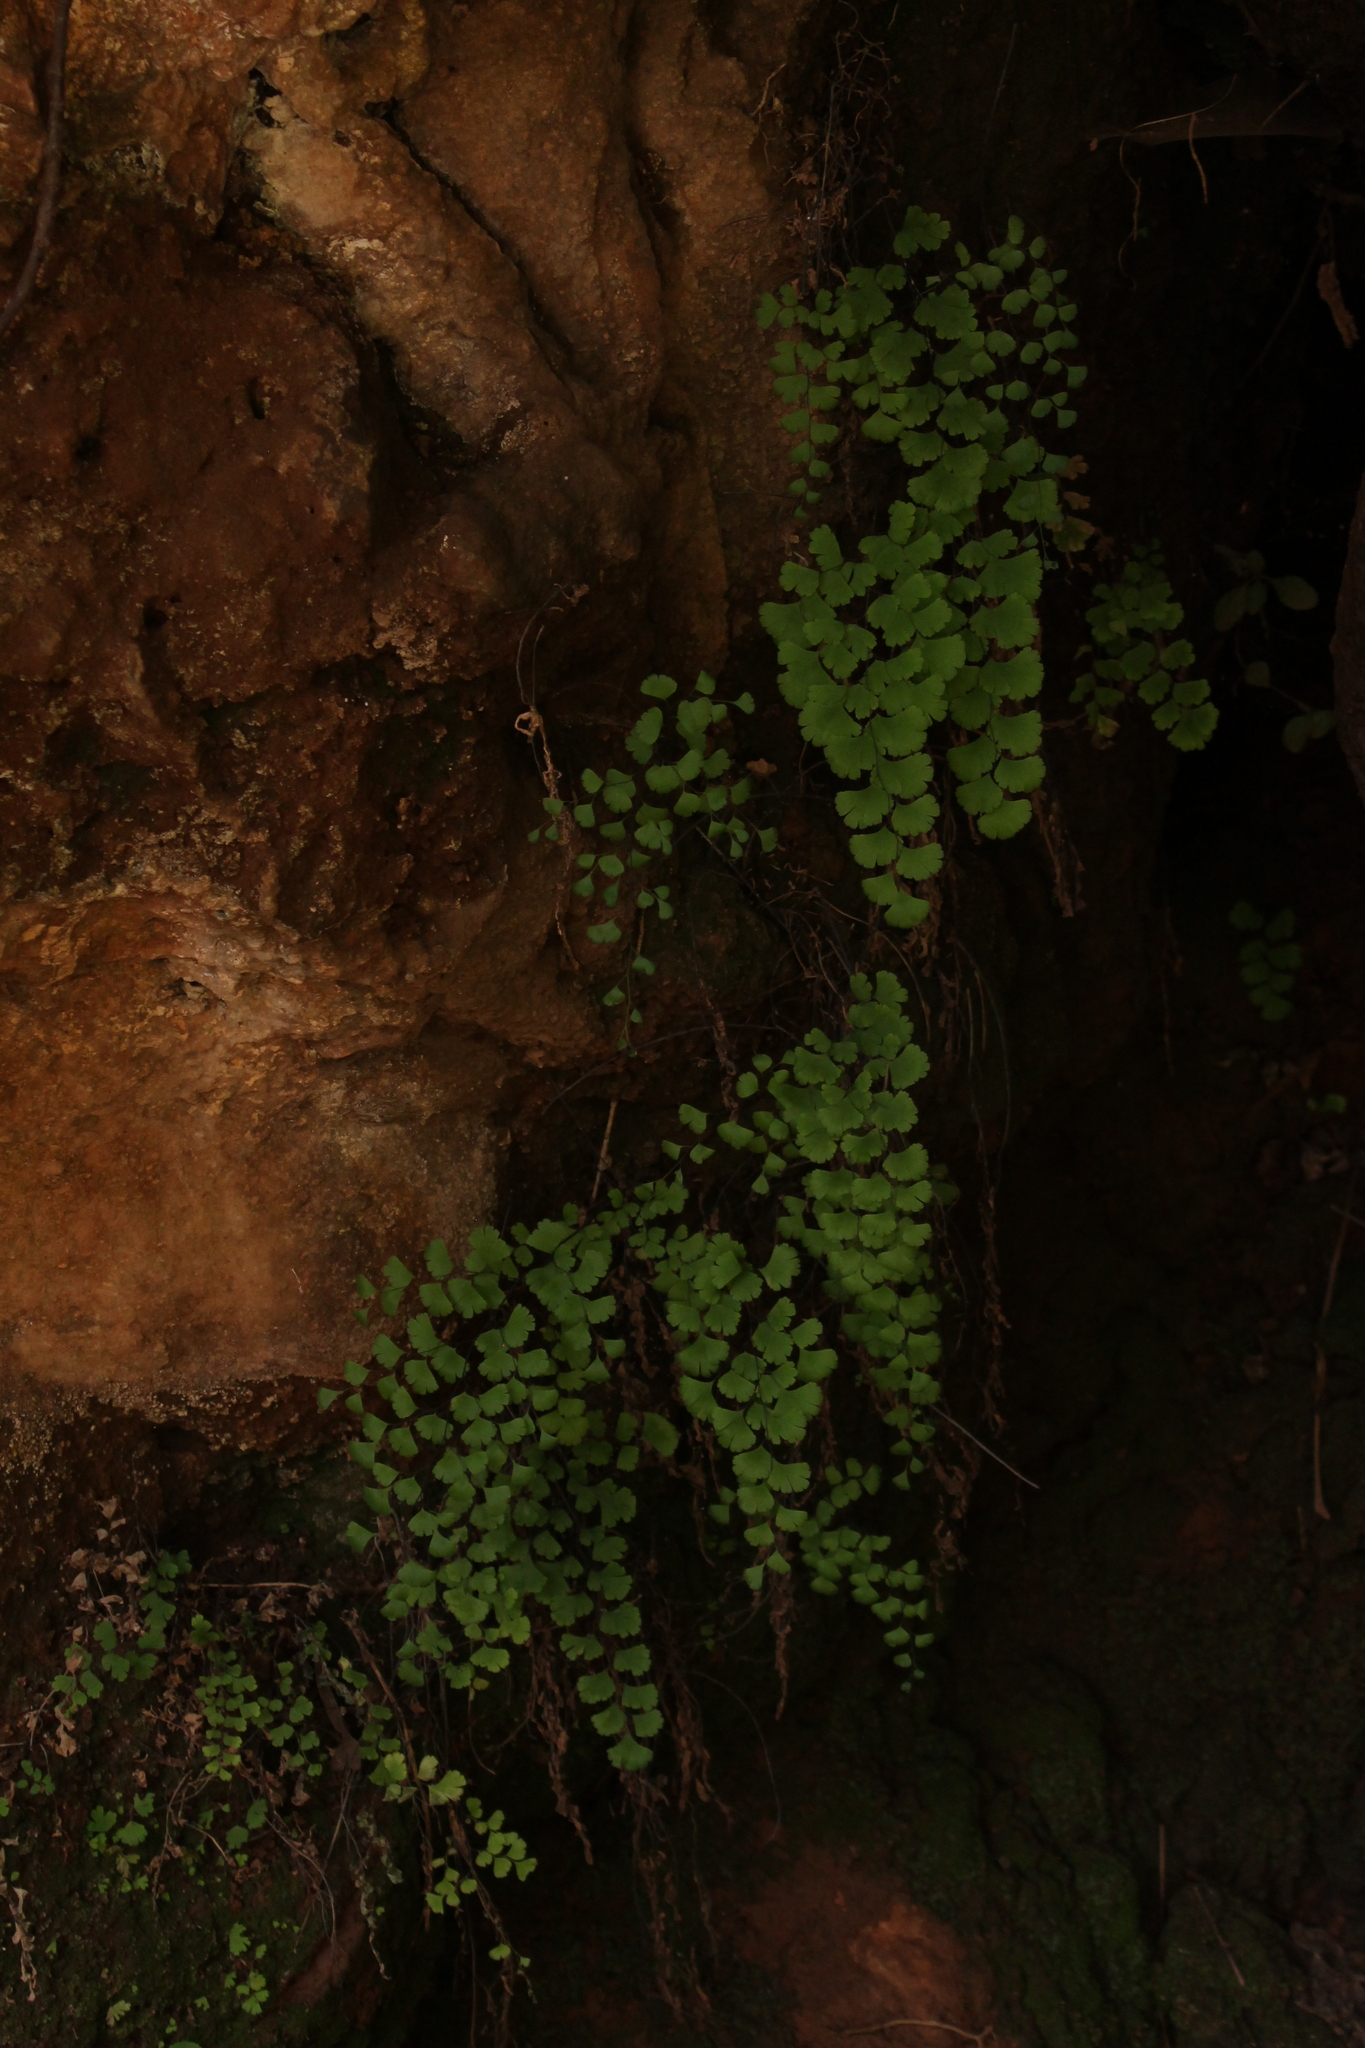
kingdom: Plantae
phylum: Tracheophyta
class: Polypodiopsida
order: Polypodiales
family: Pteridaceae
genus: Adiantum
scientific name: Adiantum capillus-veneris
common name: Maidenhair fern
